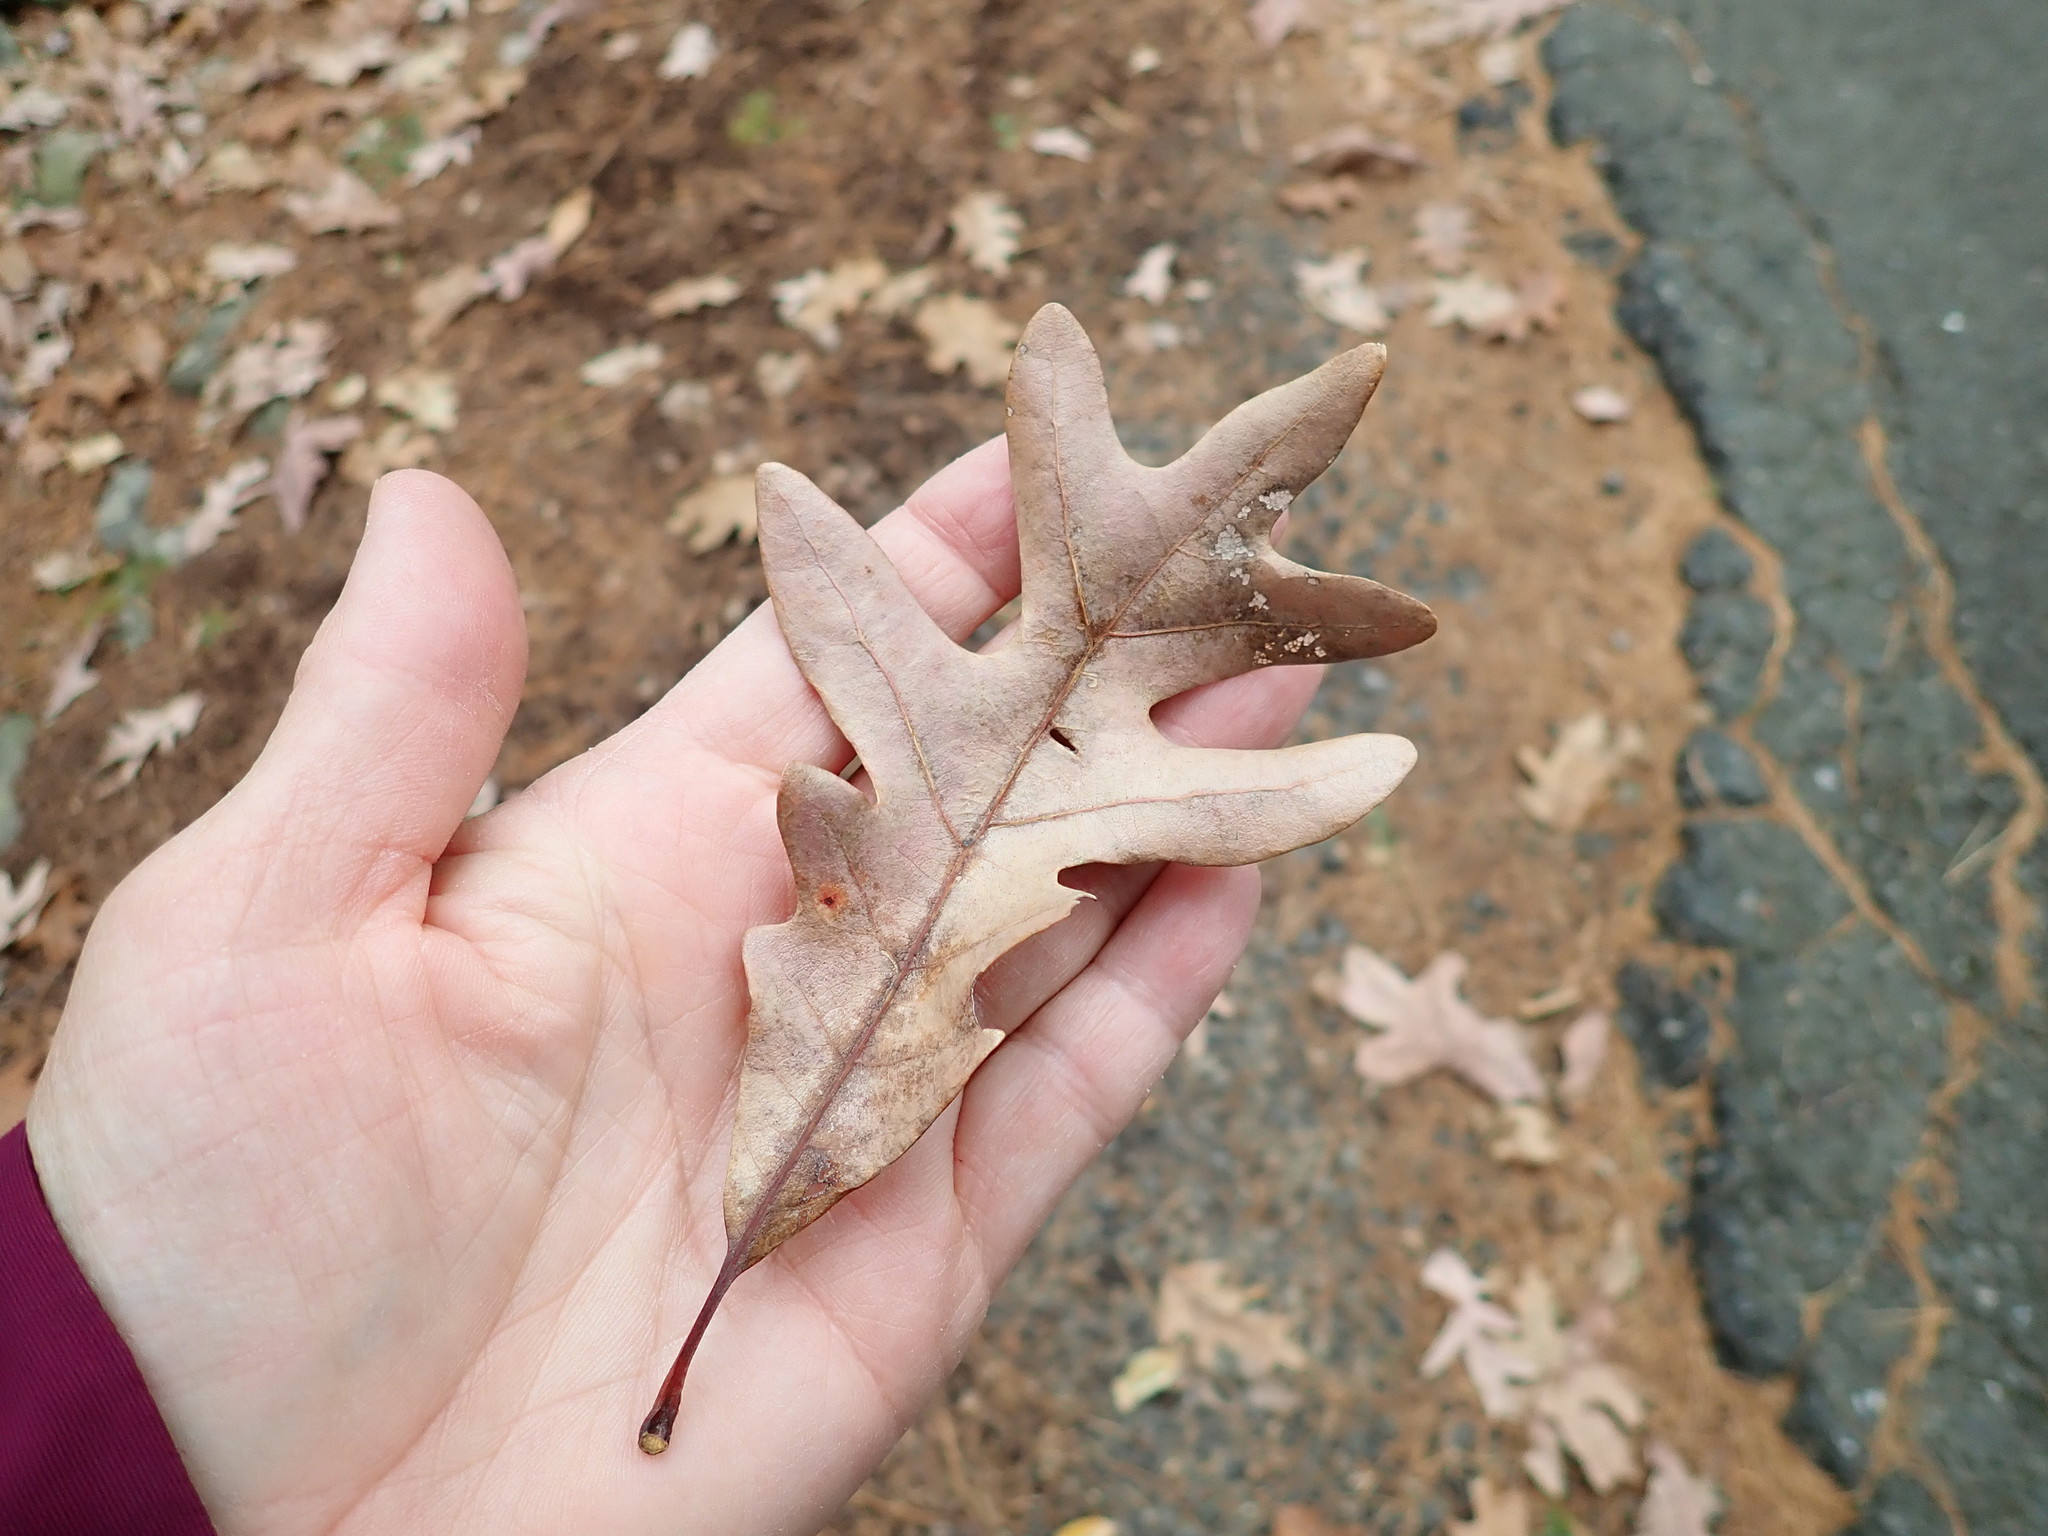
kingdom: Plantae
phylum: Tracheophyta
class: Magnoliopsida
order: Fagales
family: Fagaceae
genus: Quercus
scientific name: Quercus alba
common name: White oak
